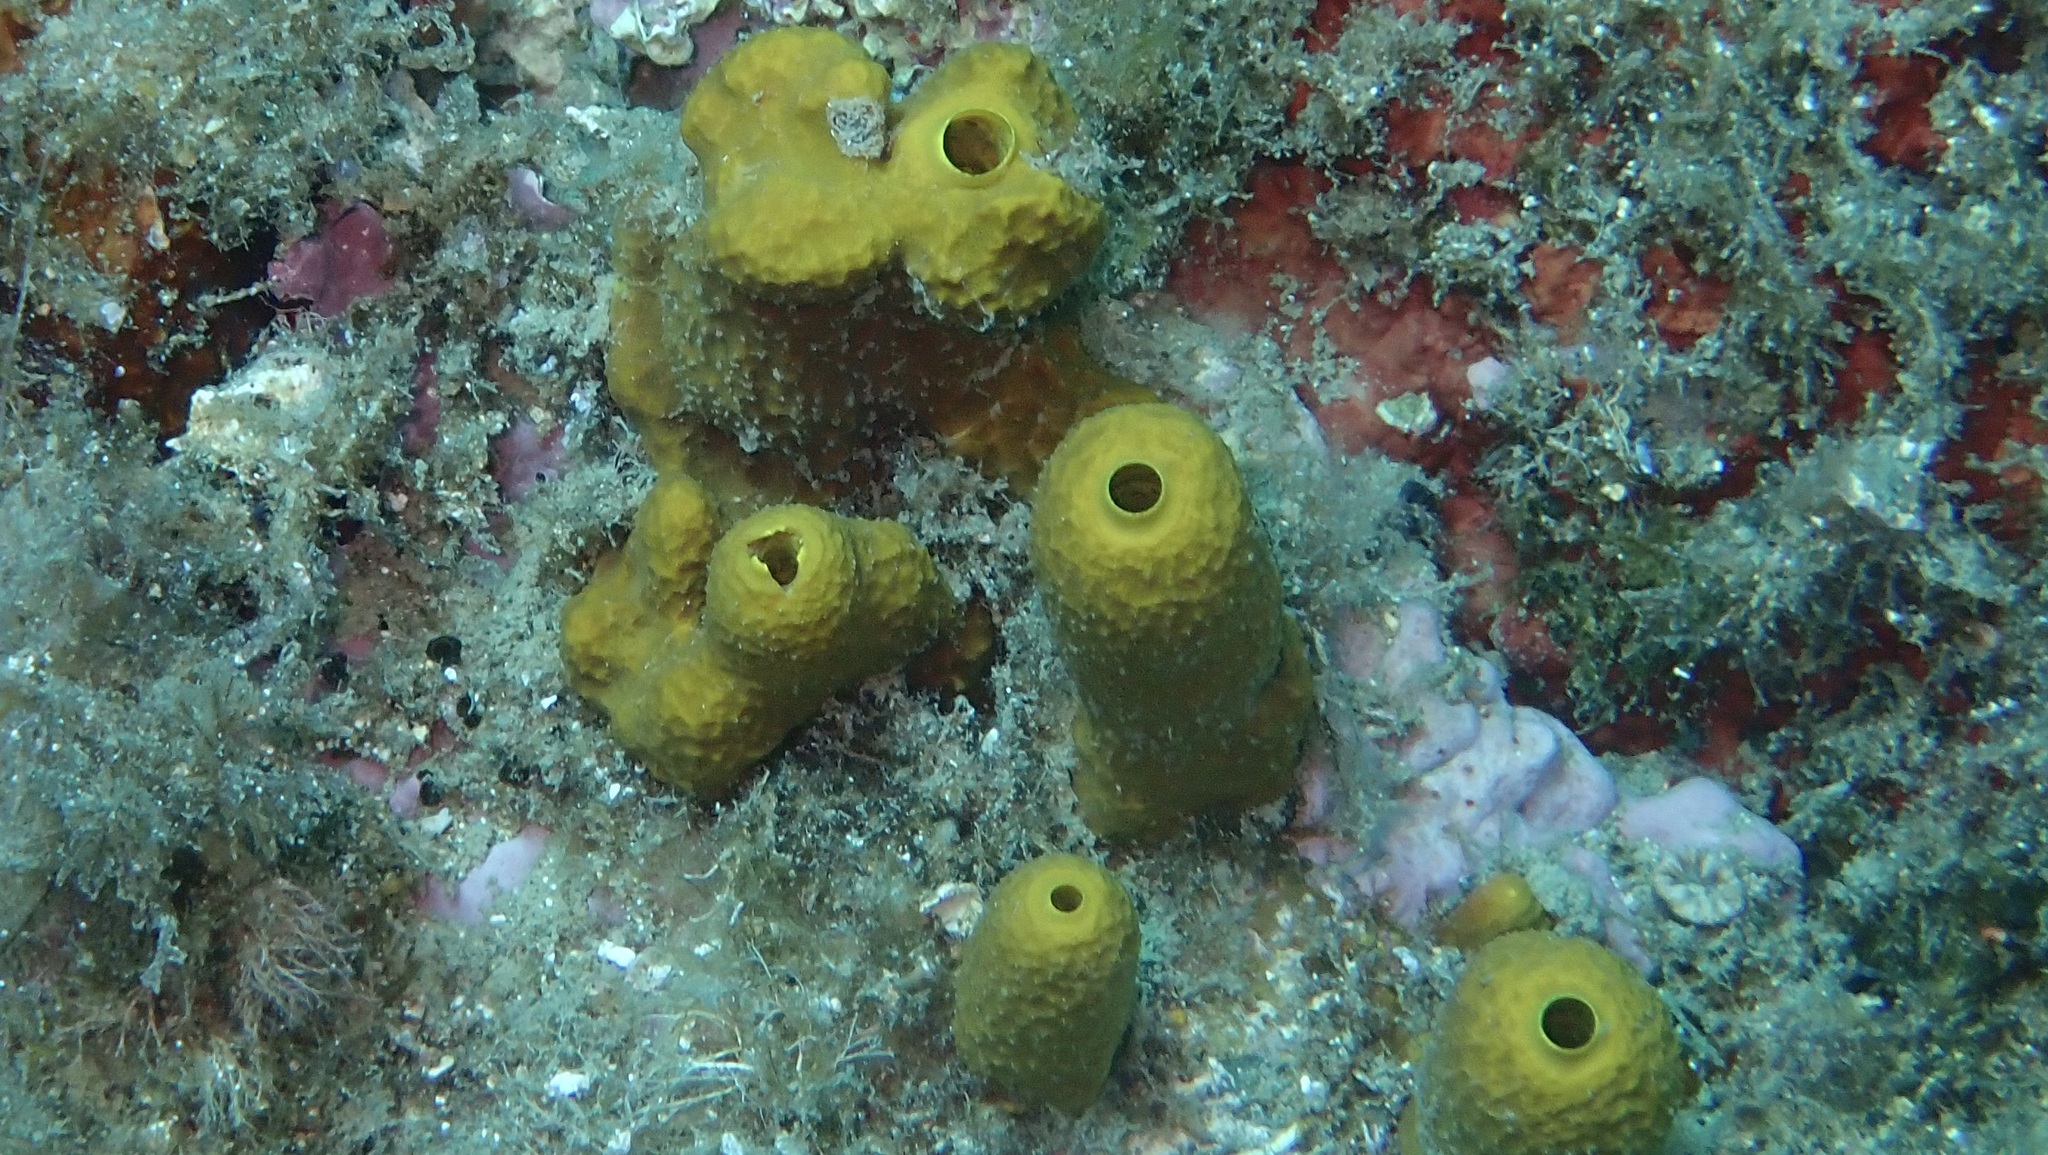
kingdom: Animalia
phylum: Porifera
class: Demospongiae
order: Verongiida
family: Aplysinidae
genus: Aplysina
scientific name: Aplysina aerophoba
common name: Aureate sponge
